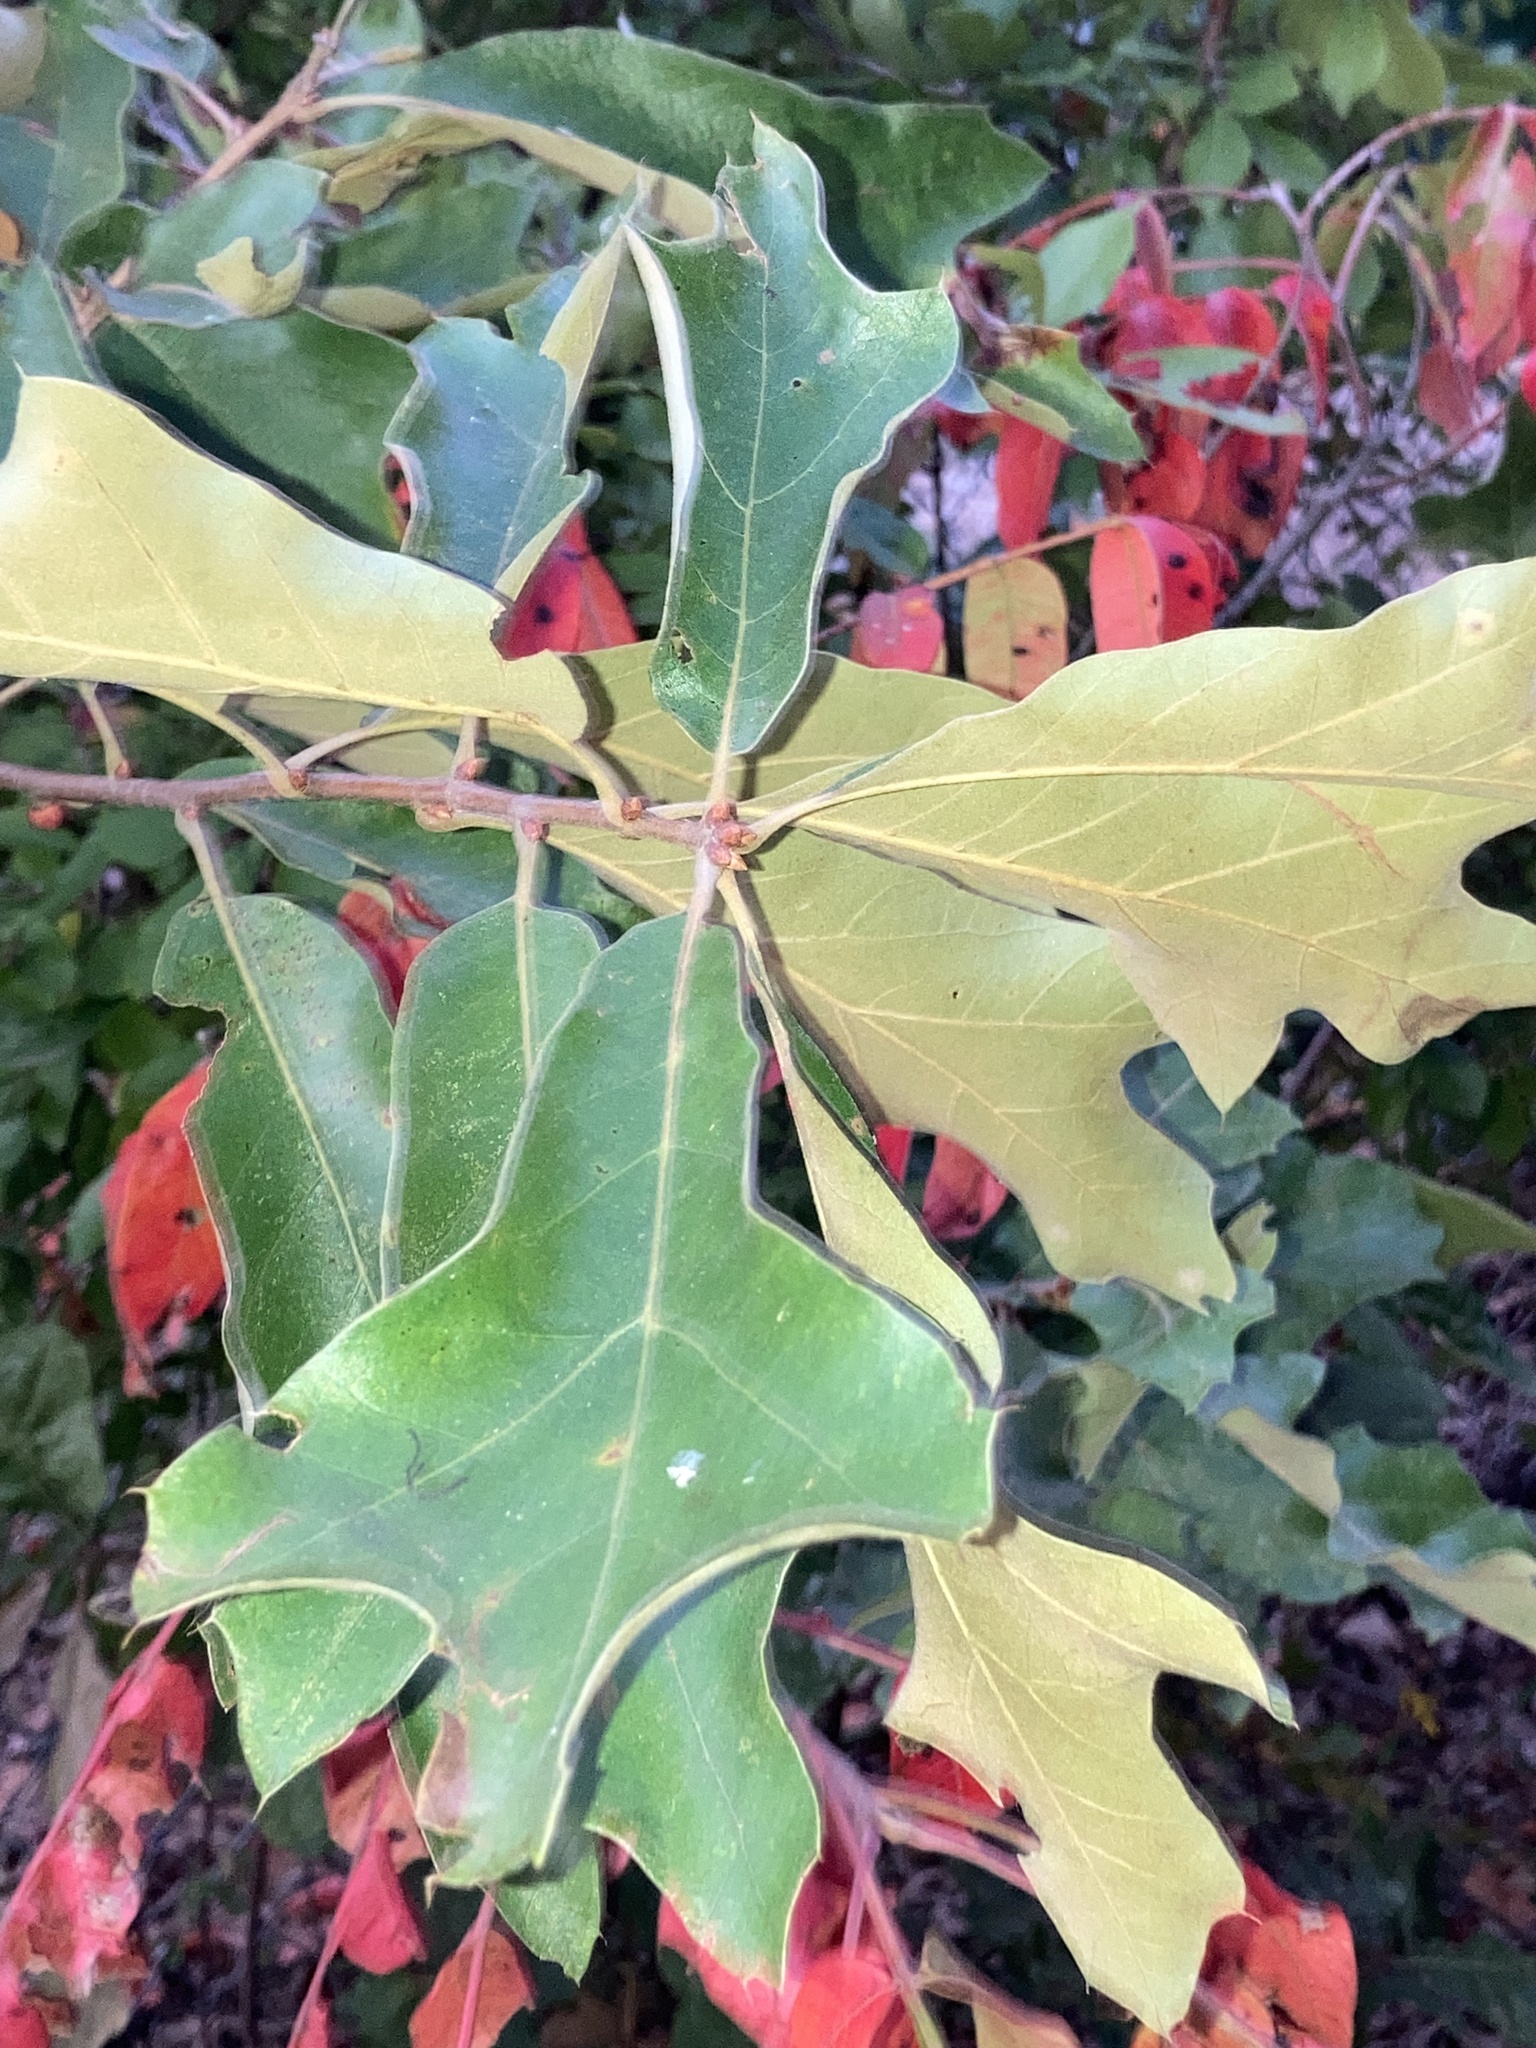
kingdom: Plantae
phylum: Tracheophyta
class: Magnoliopsida
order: Fagales
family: Fagaceae
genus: Quercus
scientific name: Quercus marilandica
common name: Blackjack oak
